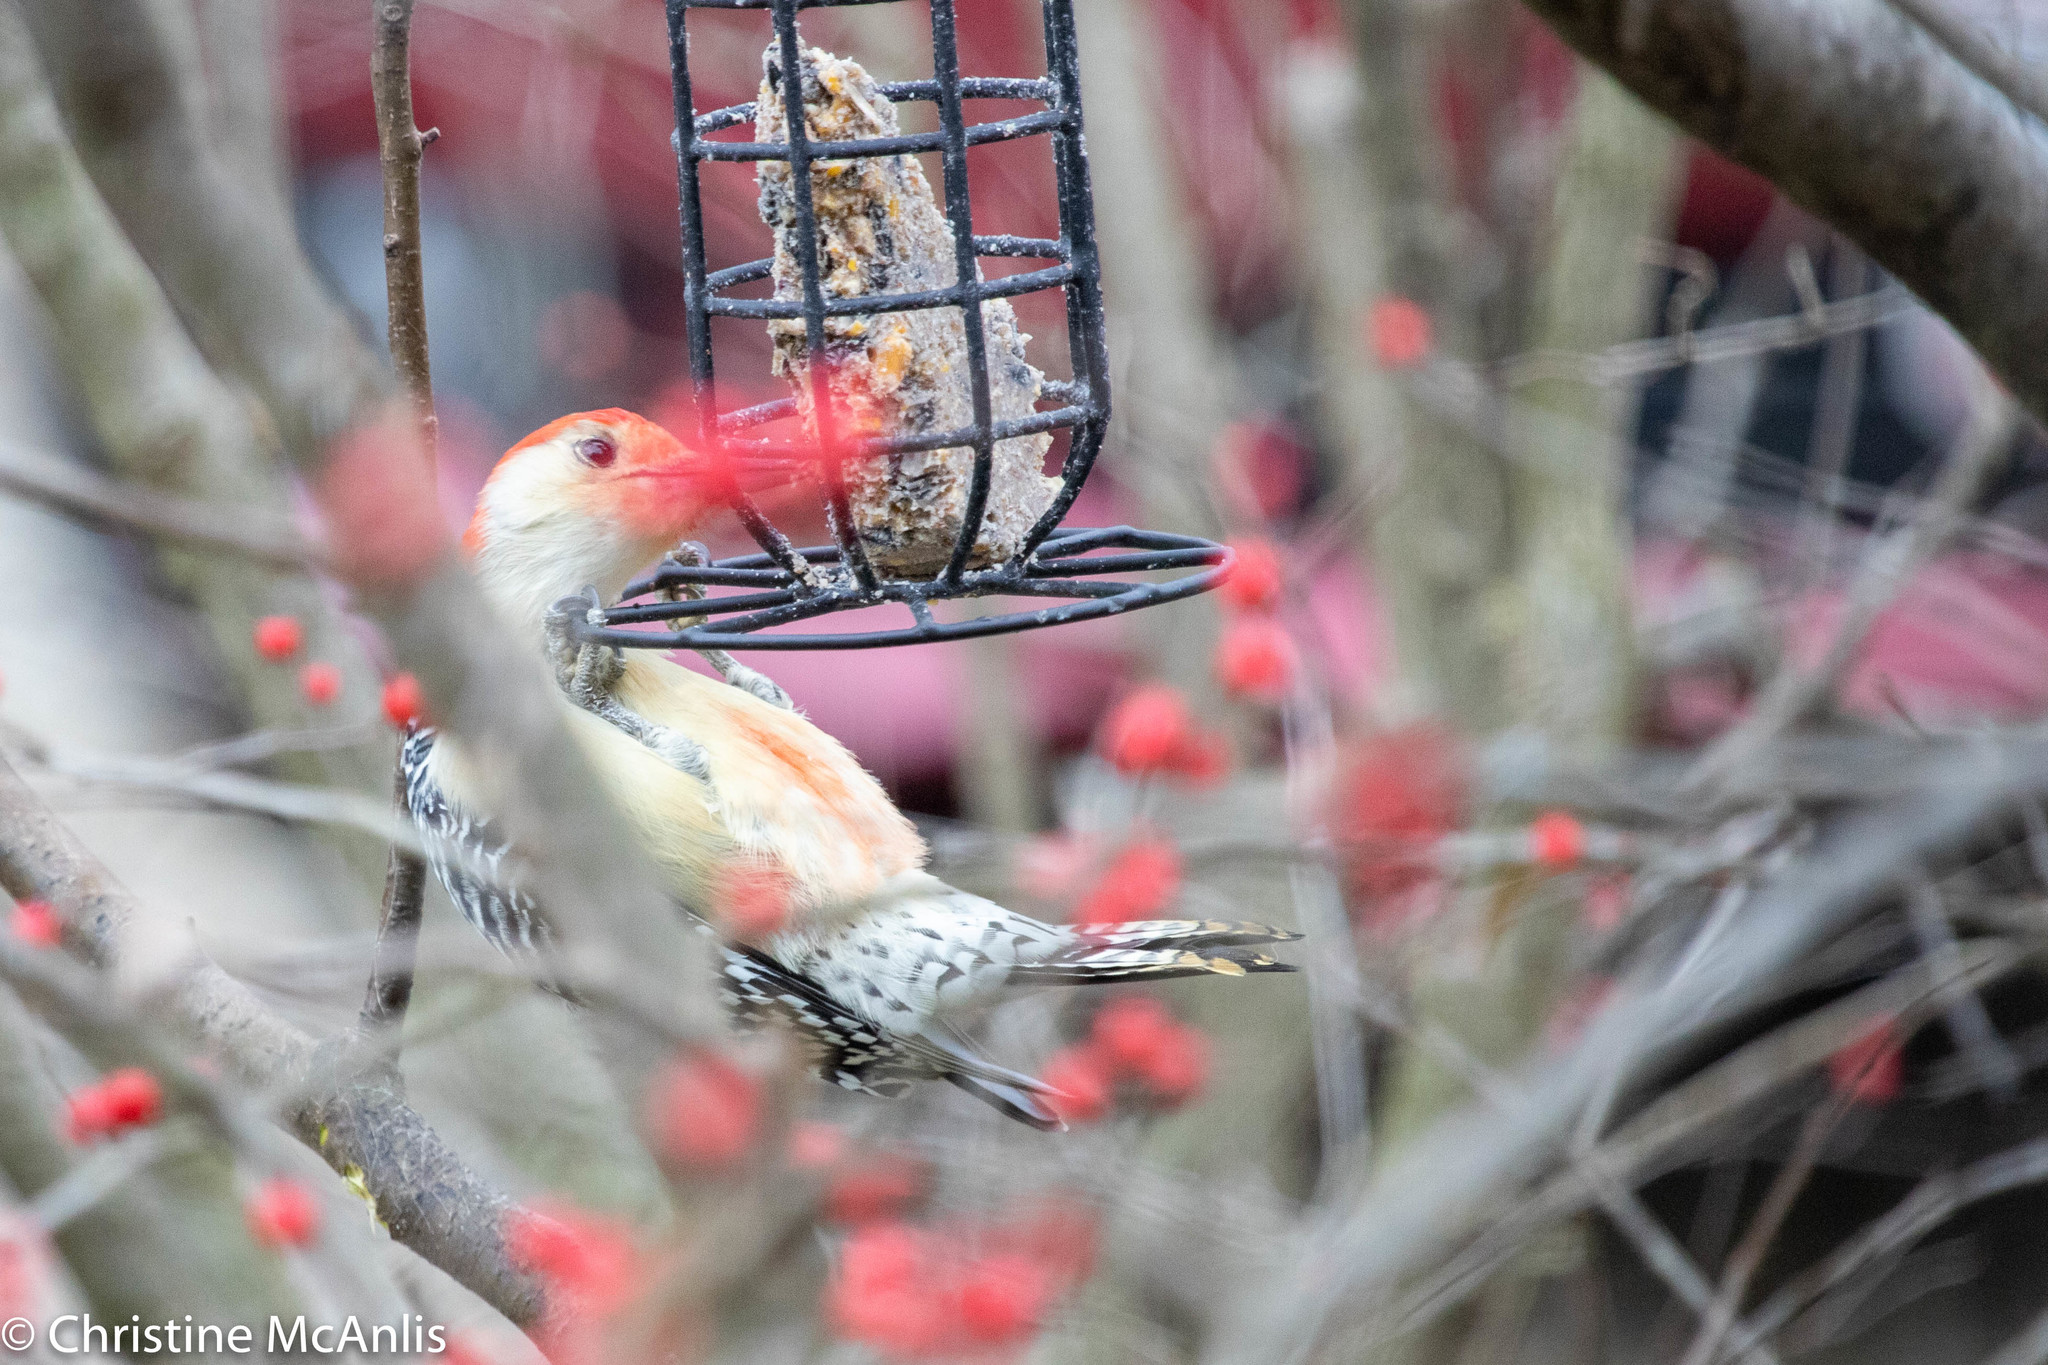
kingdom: Animalia
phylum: Chordata
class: Aves
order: Piciformes
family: Picidae
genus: Melanerpes
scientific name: Melanerpes carolinus
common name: Red-bellied woodpecker
